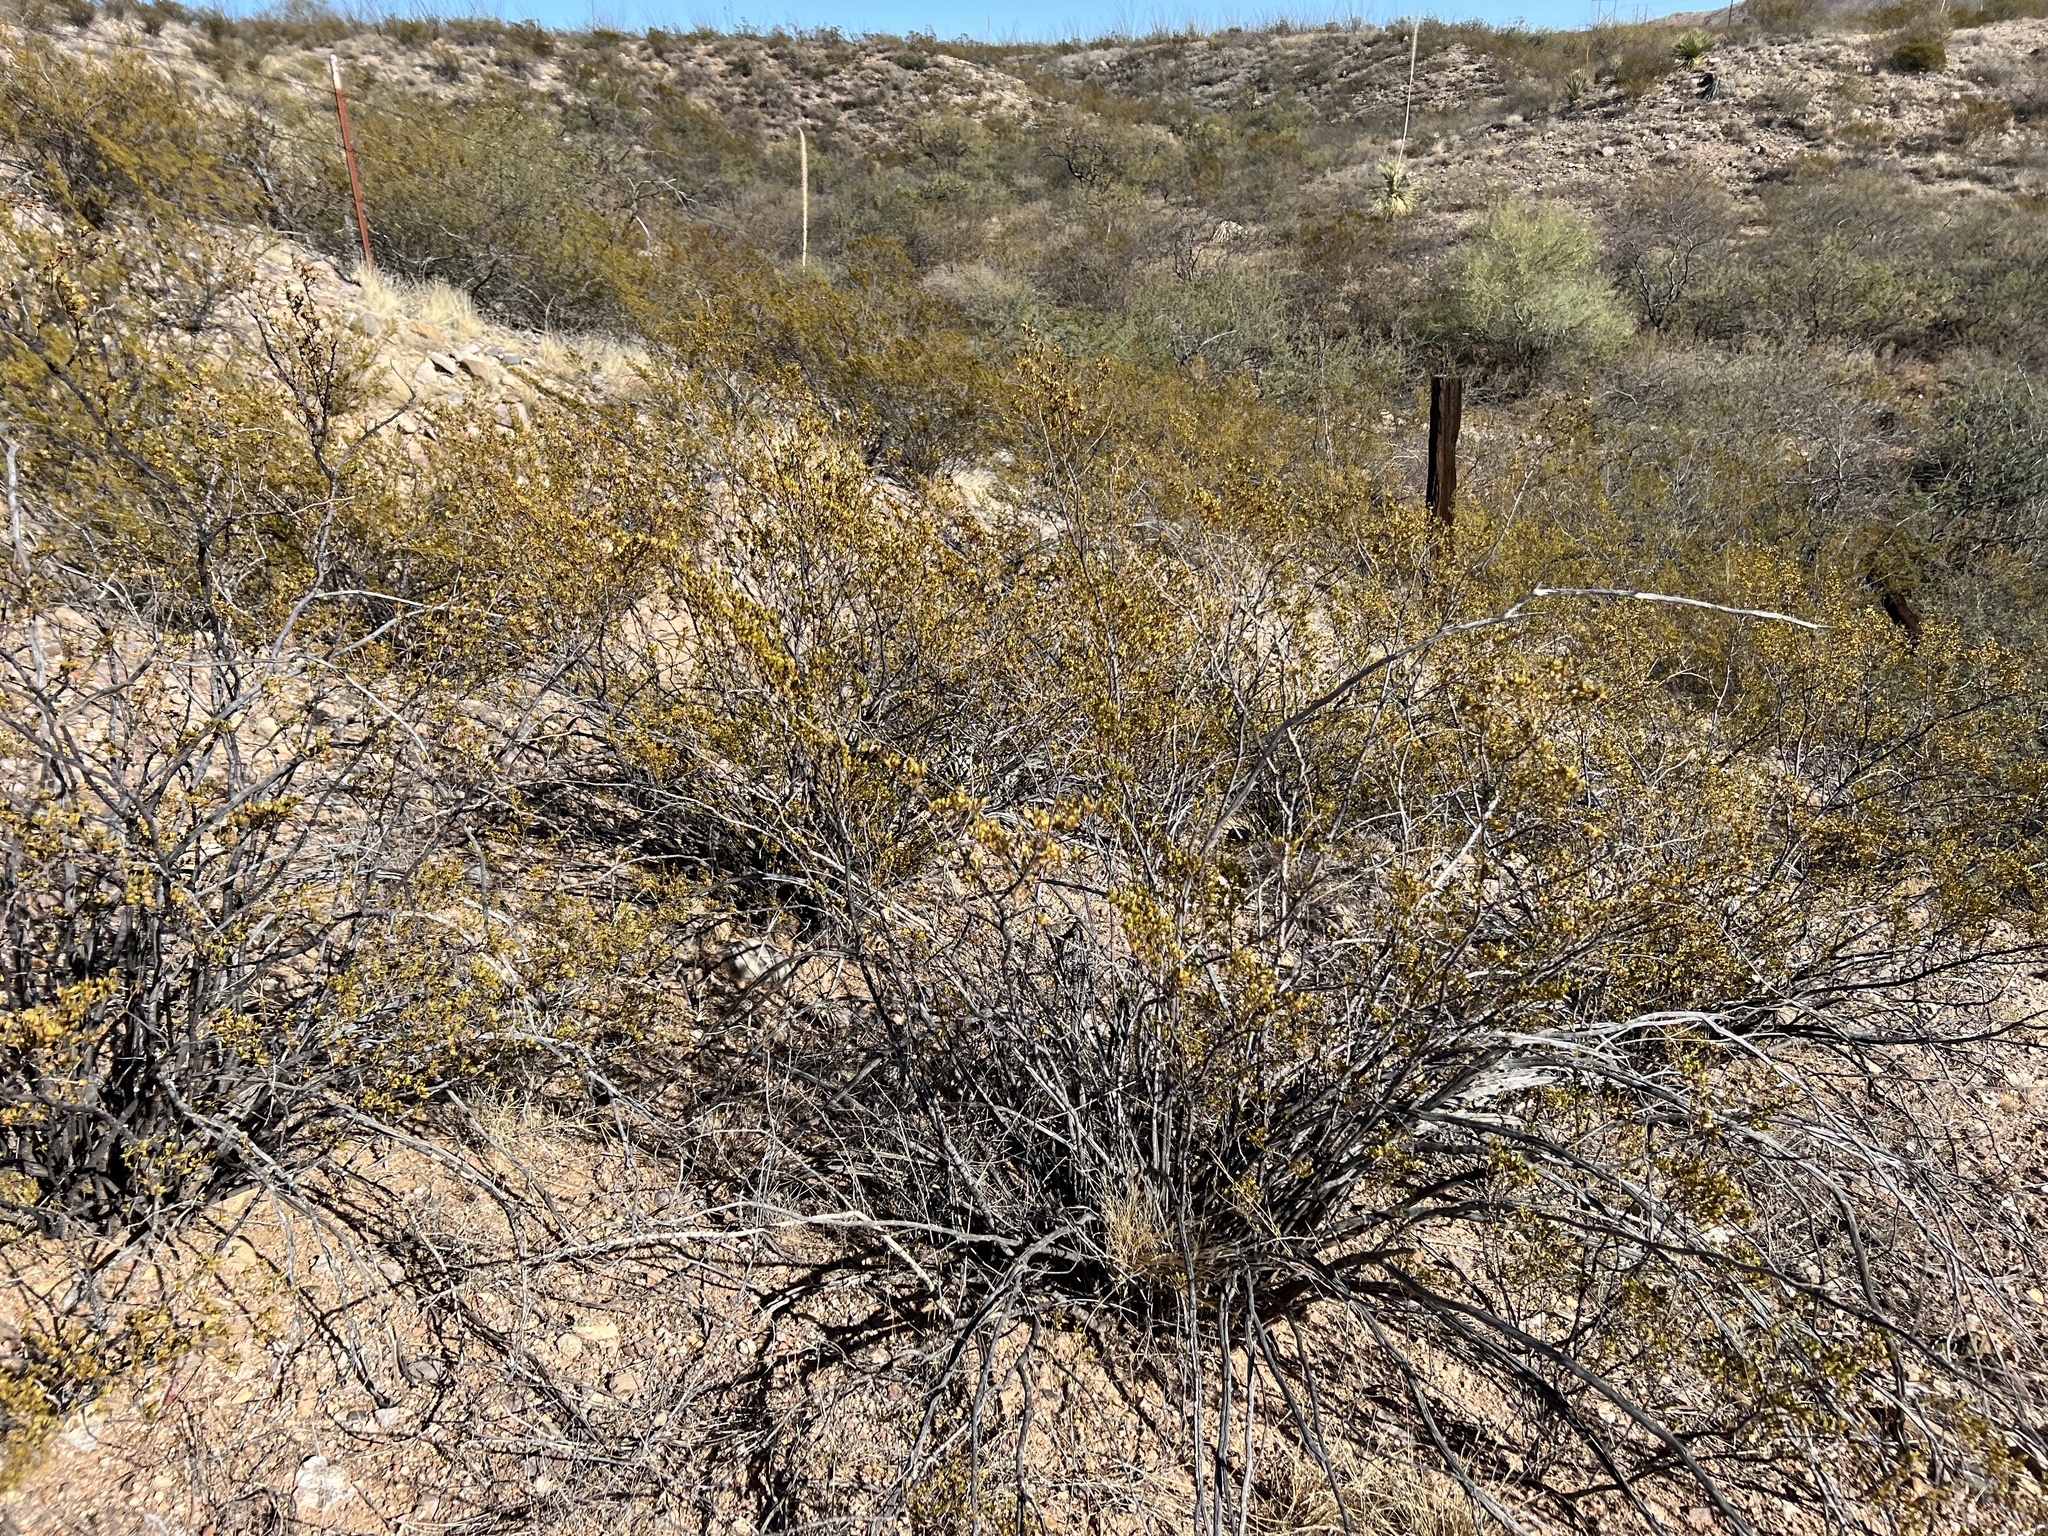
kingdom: Plantae
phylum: Tracheophyta
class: Magnoliopsida
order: Zygophyllales
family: Zygophyllaceae
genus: Larrea
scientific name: Larrea tridentata
